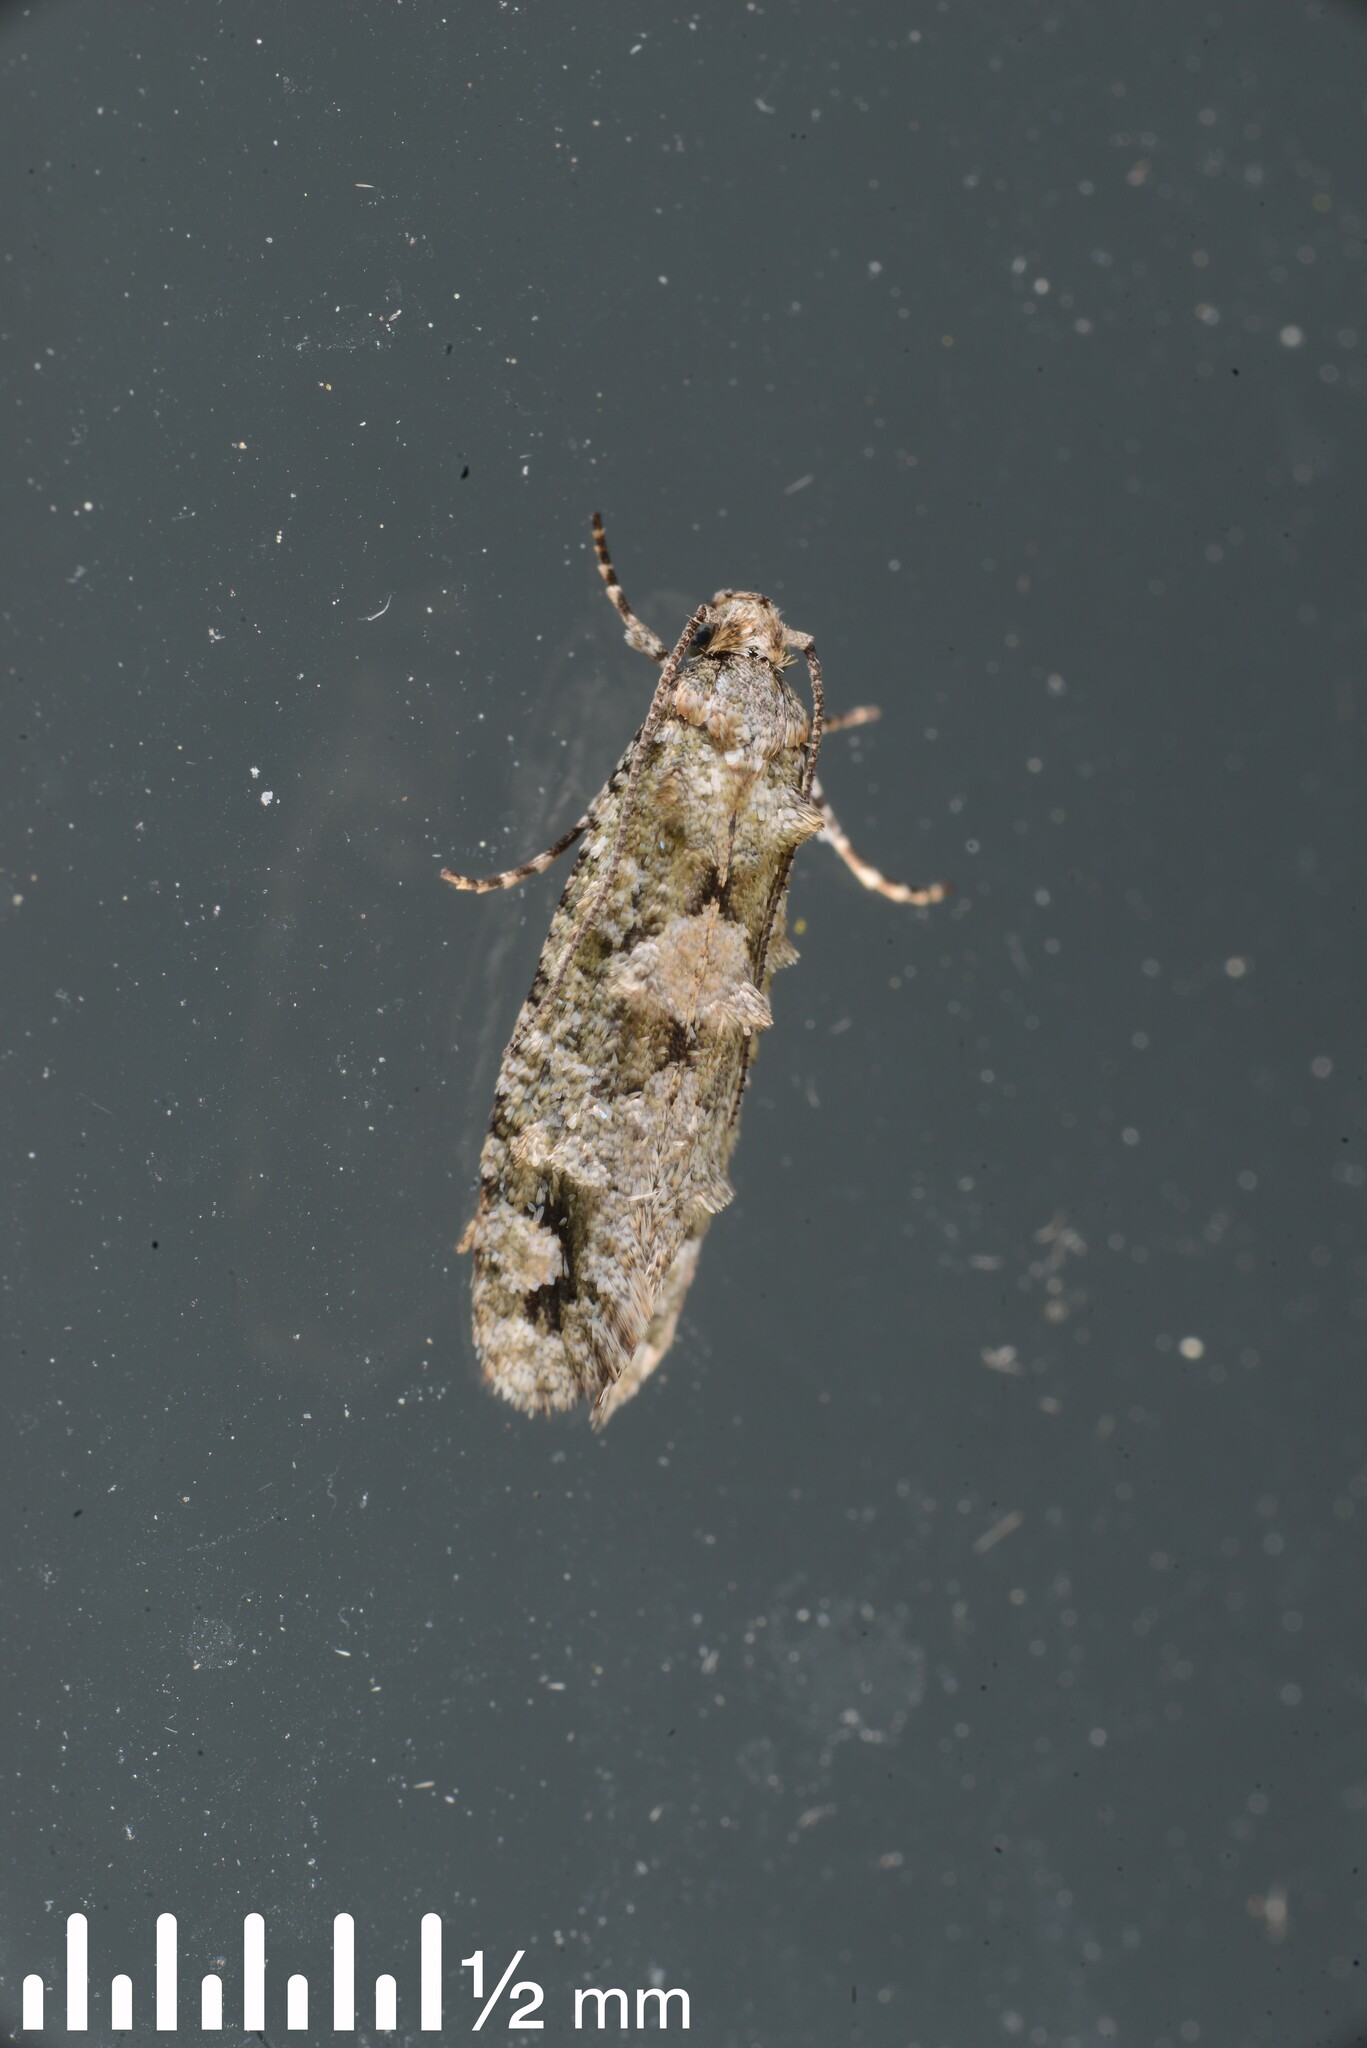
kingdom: Animalia
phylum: Arthropoda
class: Insecta
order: Lepidoptera
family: Tineidae
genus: Lysiphragma
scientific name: Lysiphragma howesii
